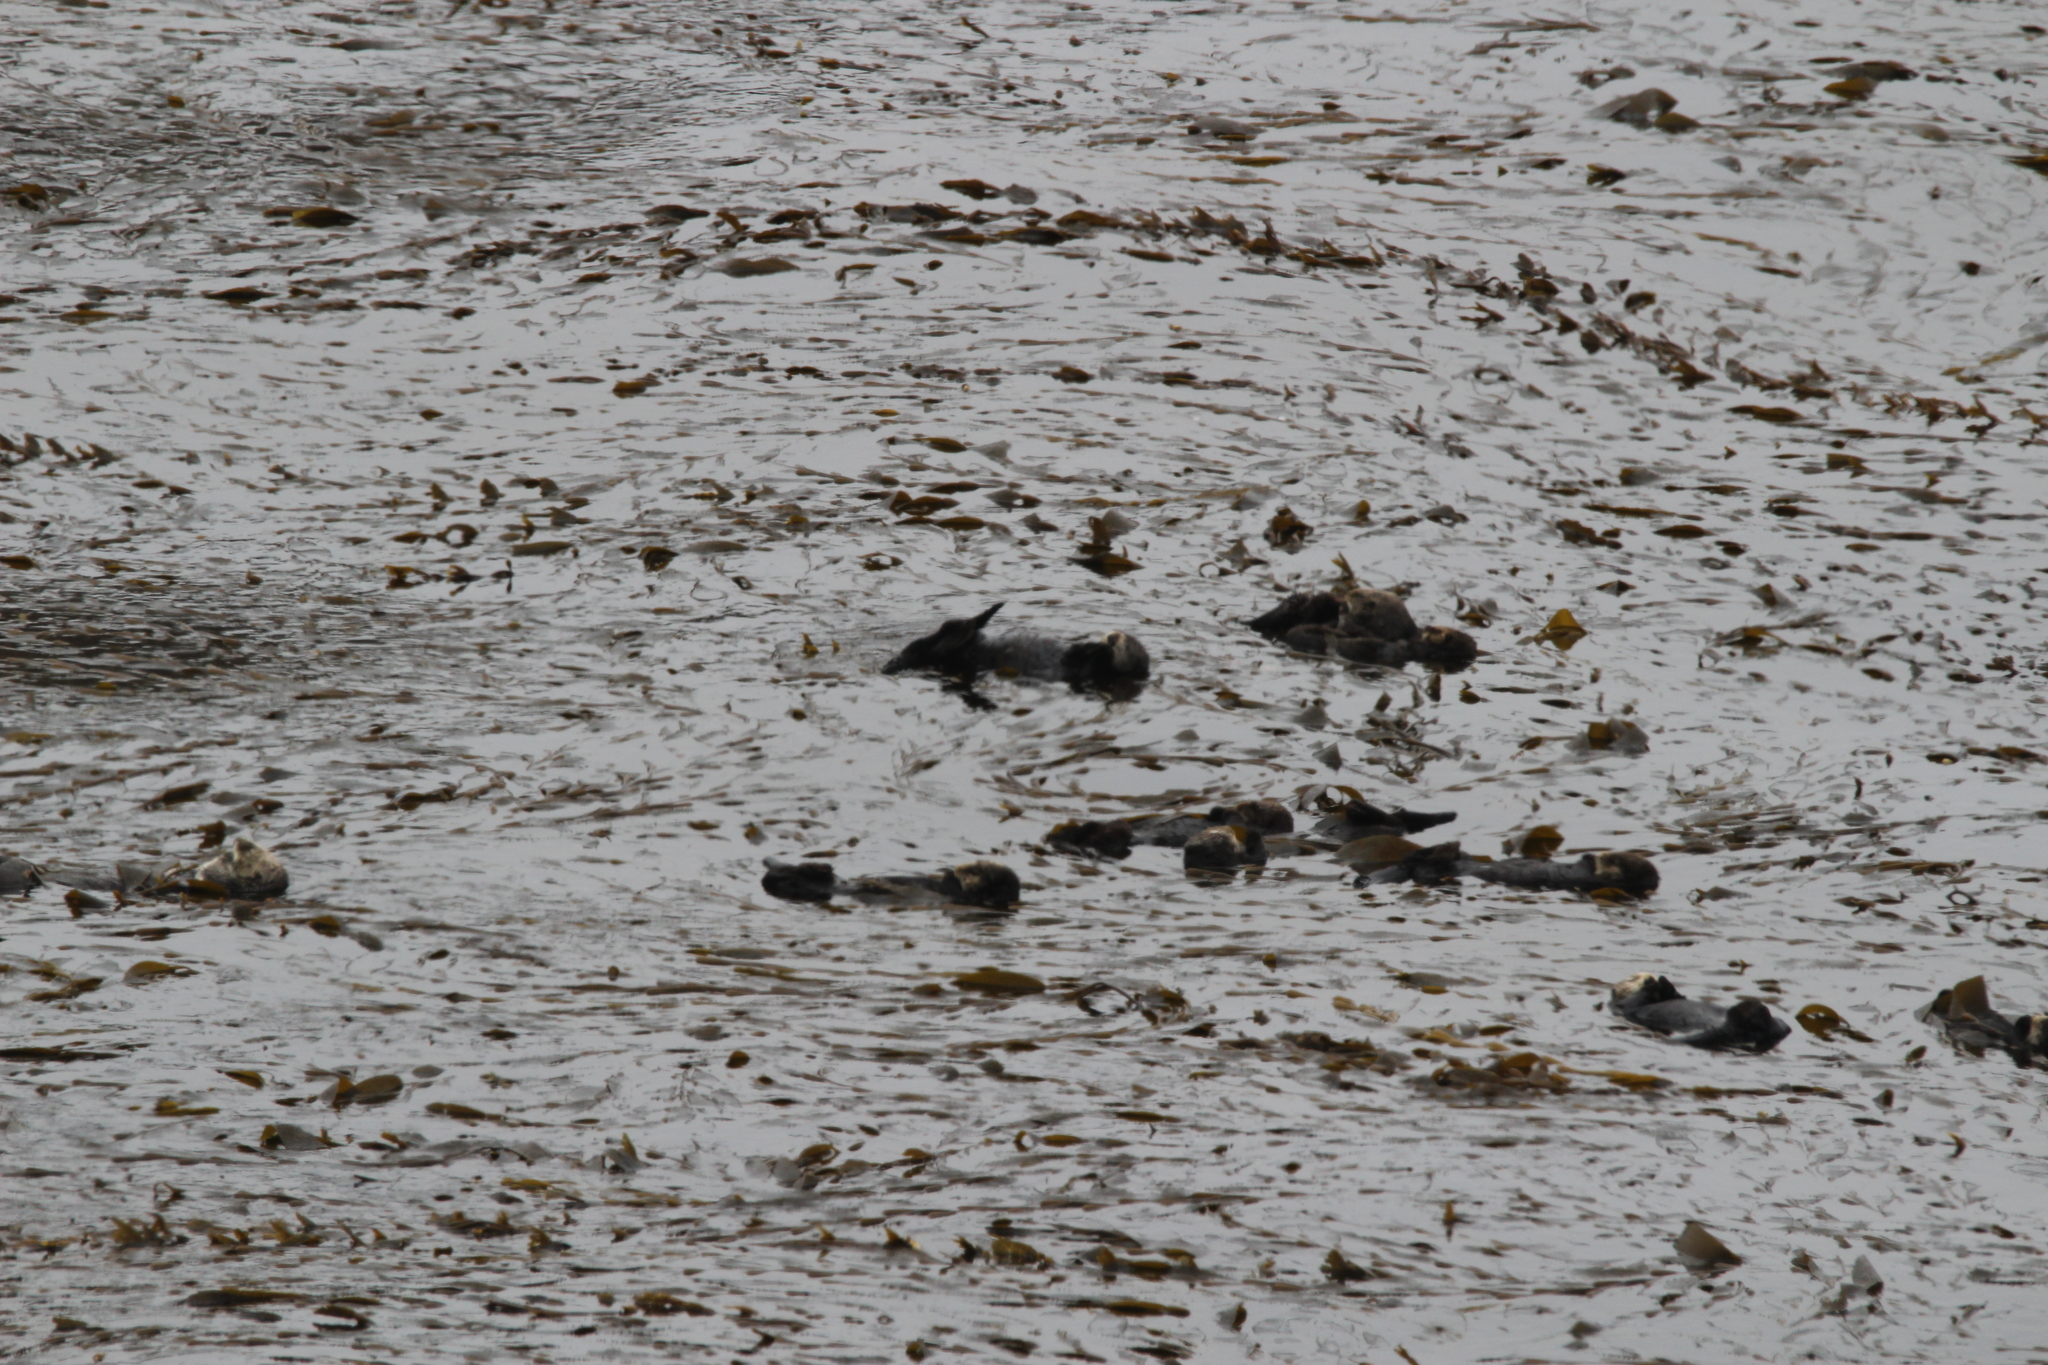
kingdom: Animalia
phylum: Chordata
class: Mammalia
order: Carnivora
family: Mustelidae
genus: Enhydra
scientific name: Enhydra lutris
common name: Sea otter
